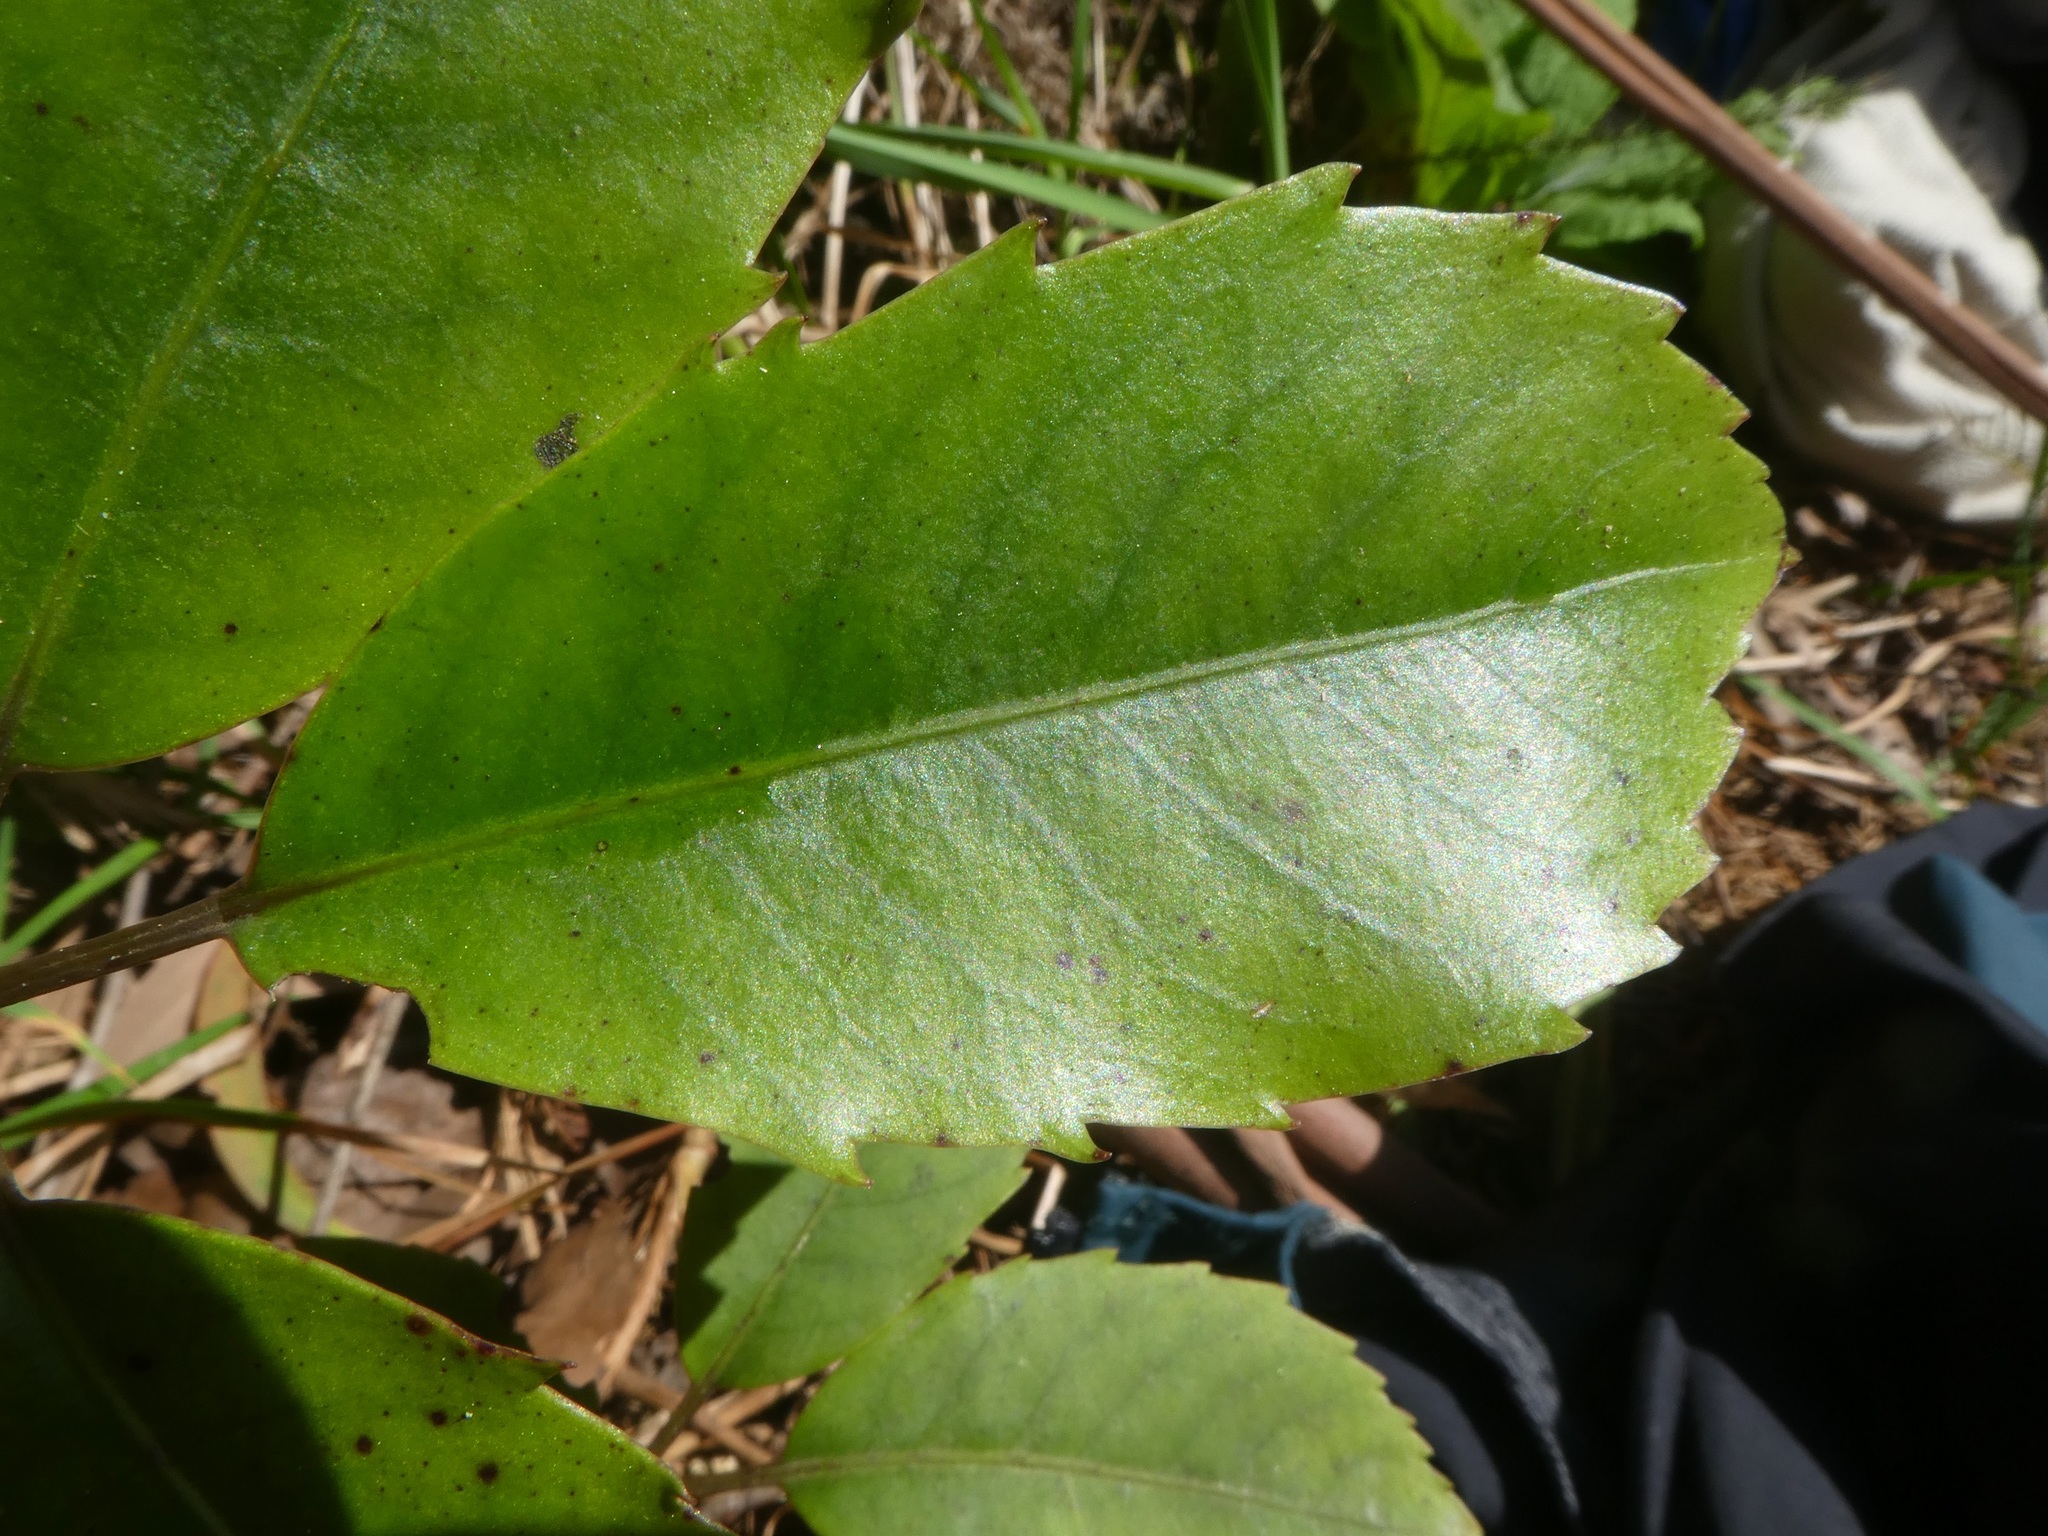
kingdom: Plantae
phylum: Tracheophyta
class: Magnoliopsida
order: Apiales
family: Araliaceae
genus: Neopanax
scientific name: Neopanax arboreus
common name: Five-fingers
